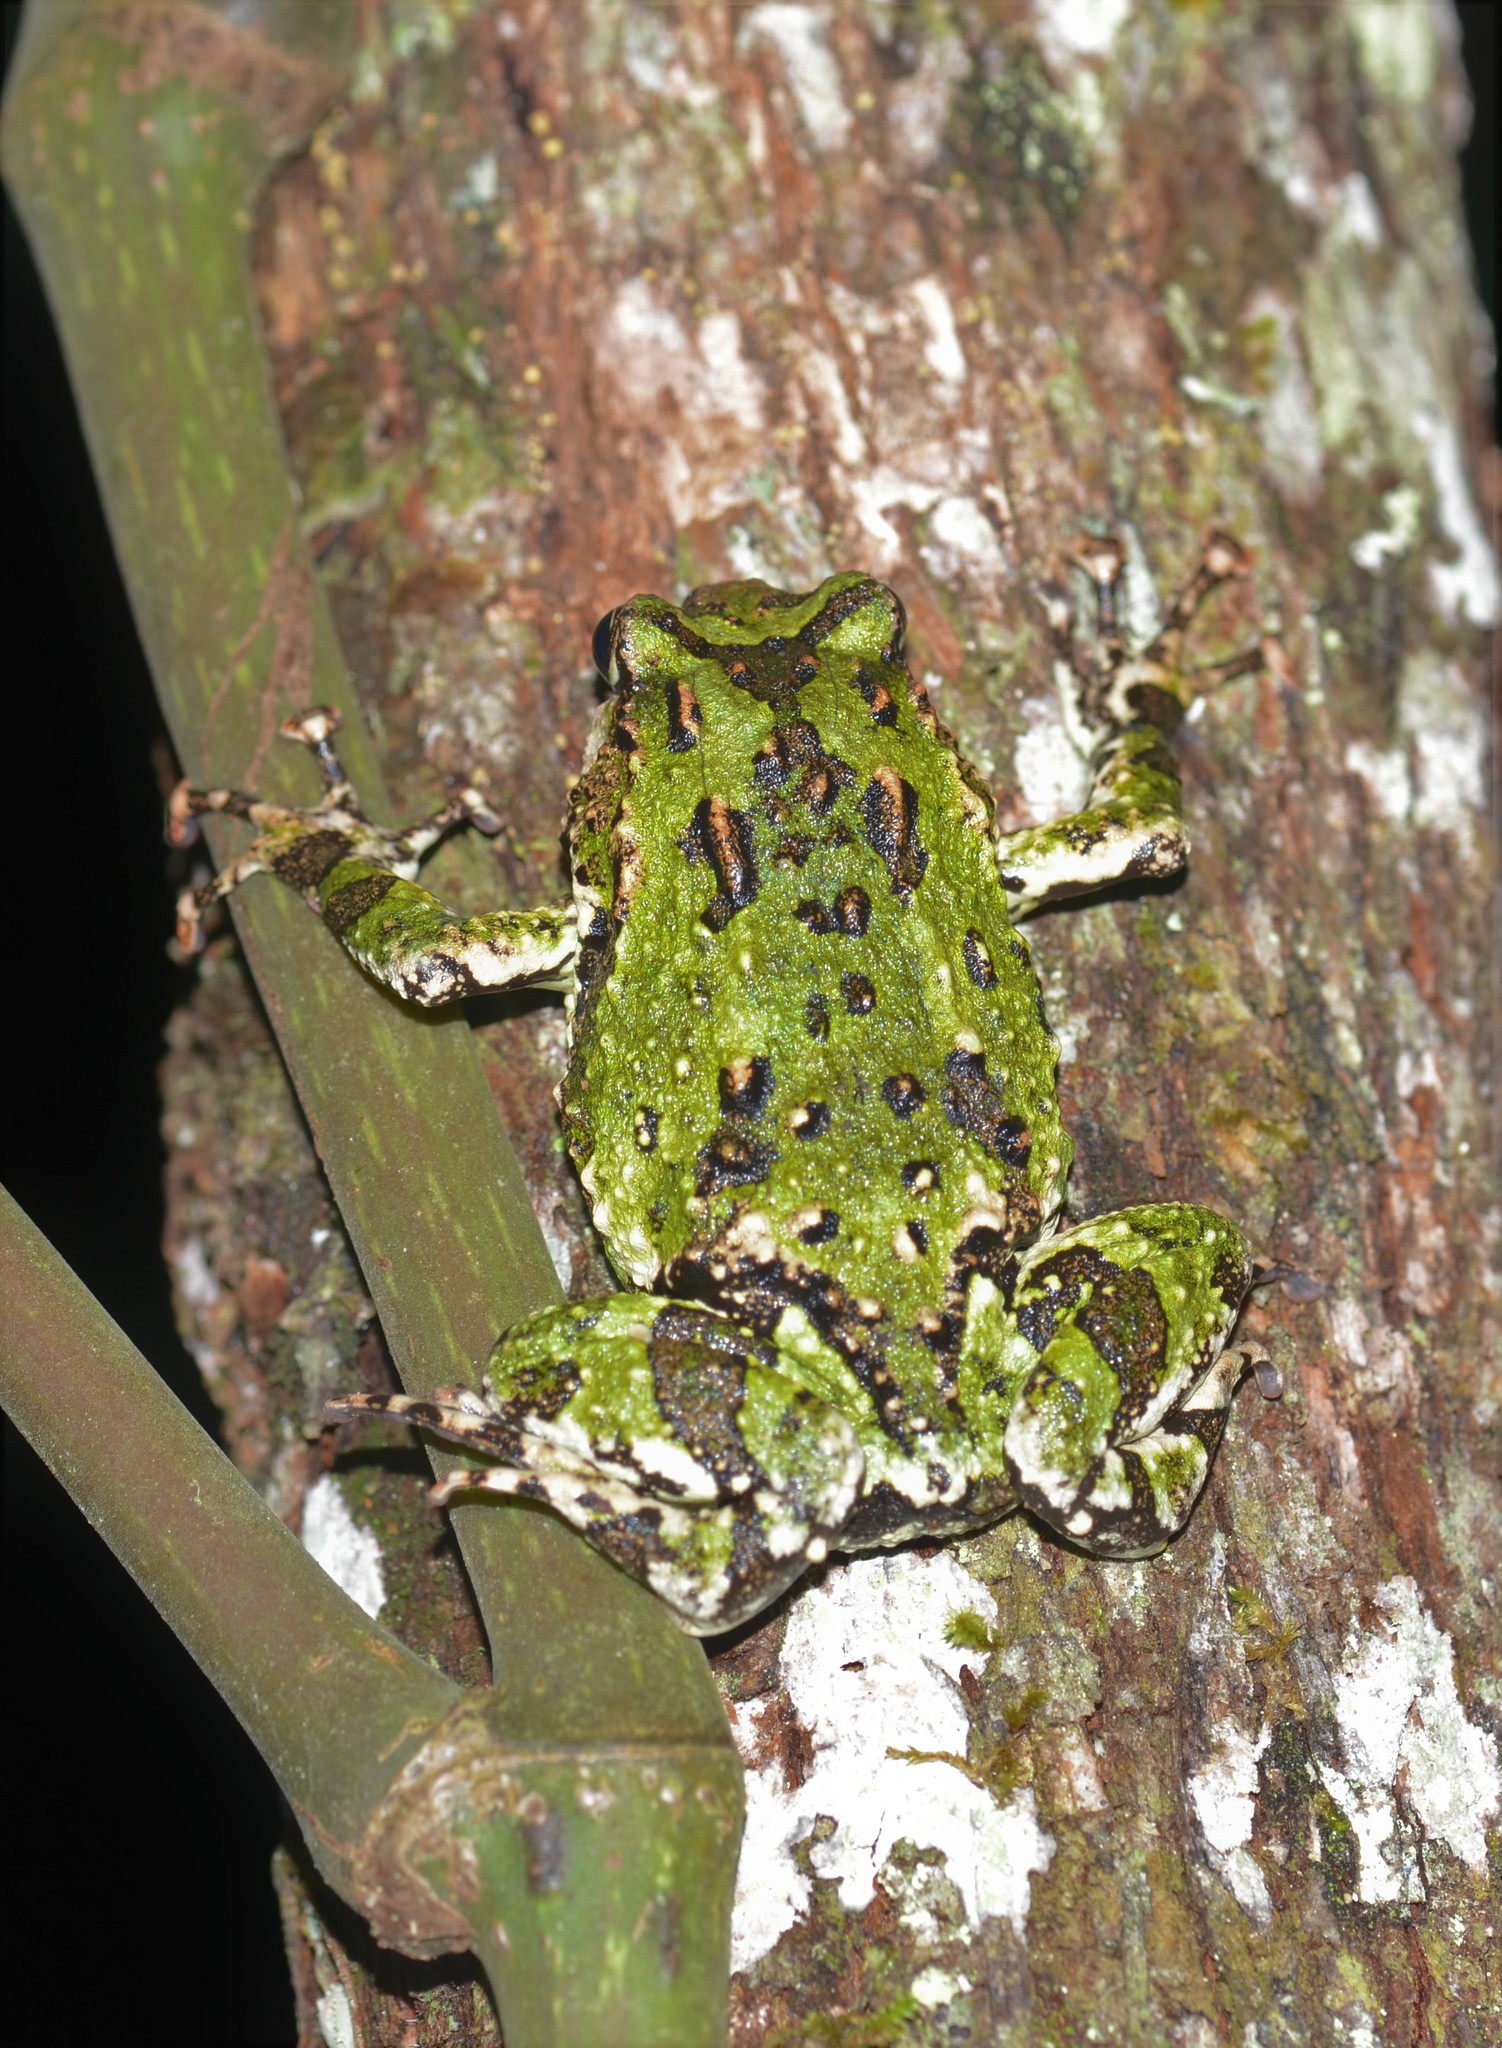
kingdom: Animalia
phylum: Chordata
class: Amphibia
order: Anura
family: Microhylidae
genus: Scaphiophryne
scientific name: Scaphiophryne marmorata
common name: Marbled rain frog
